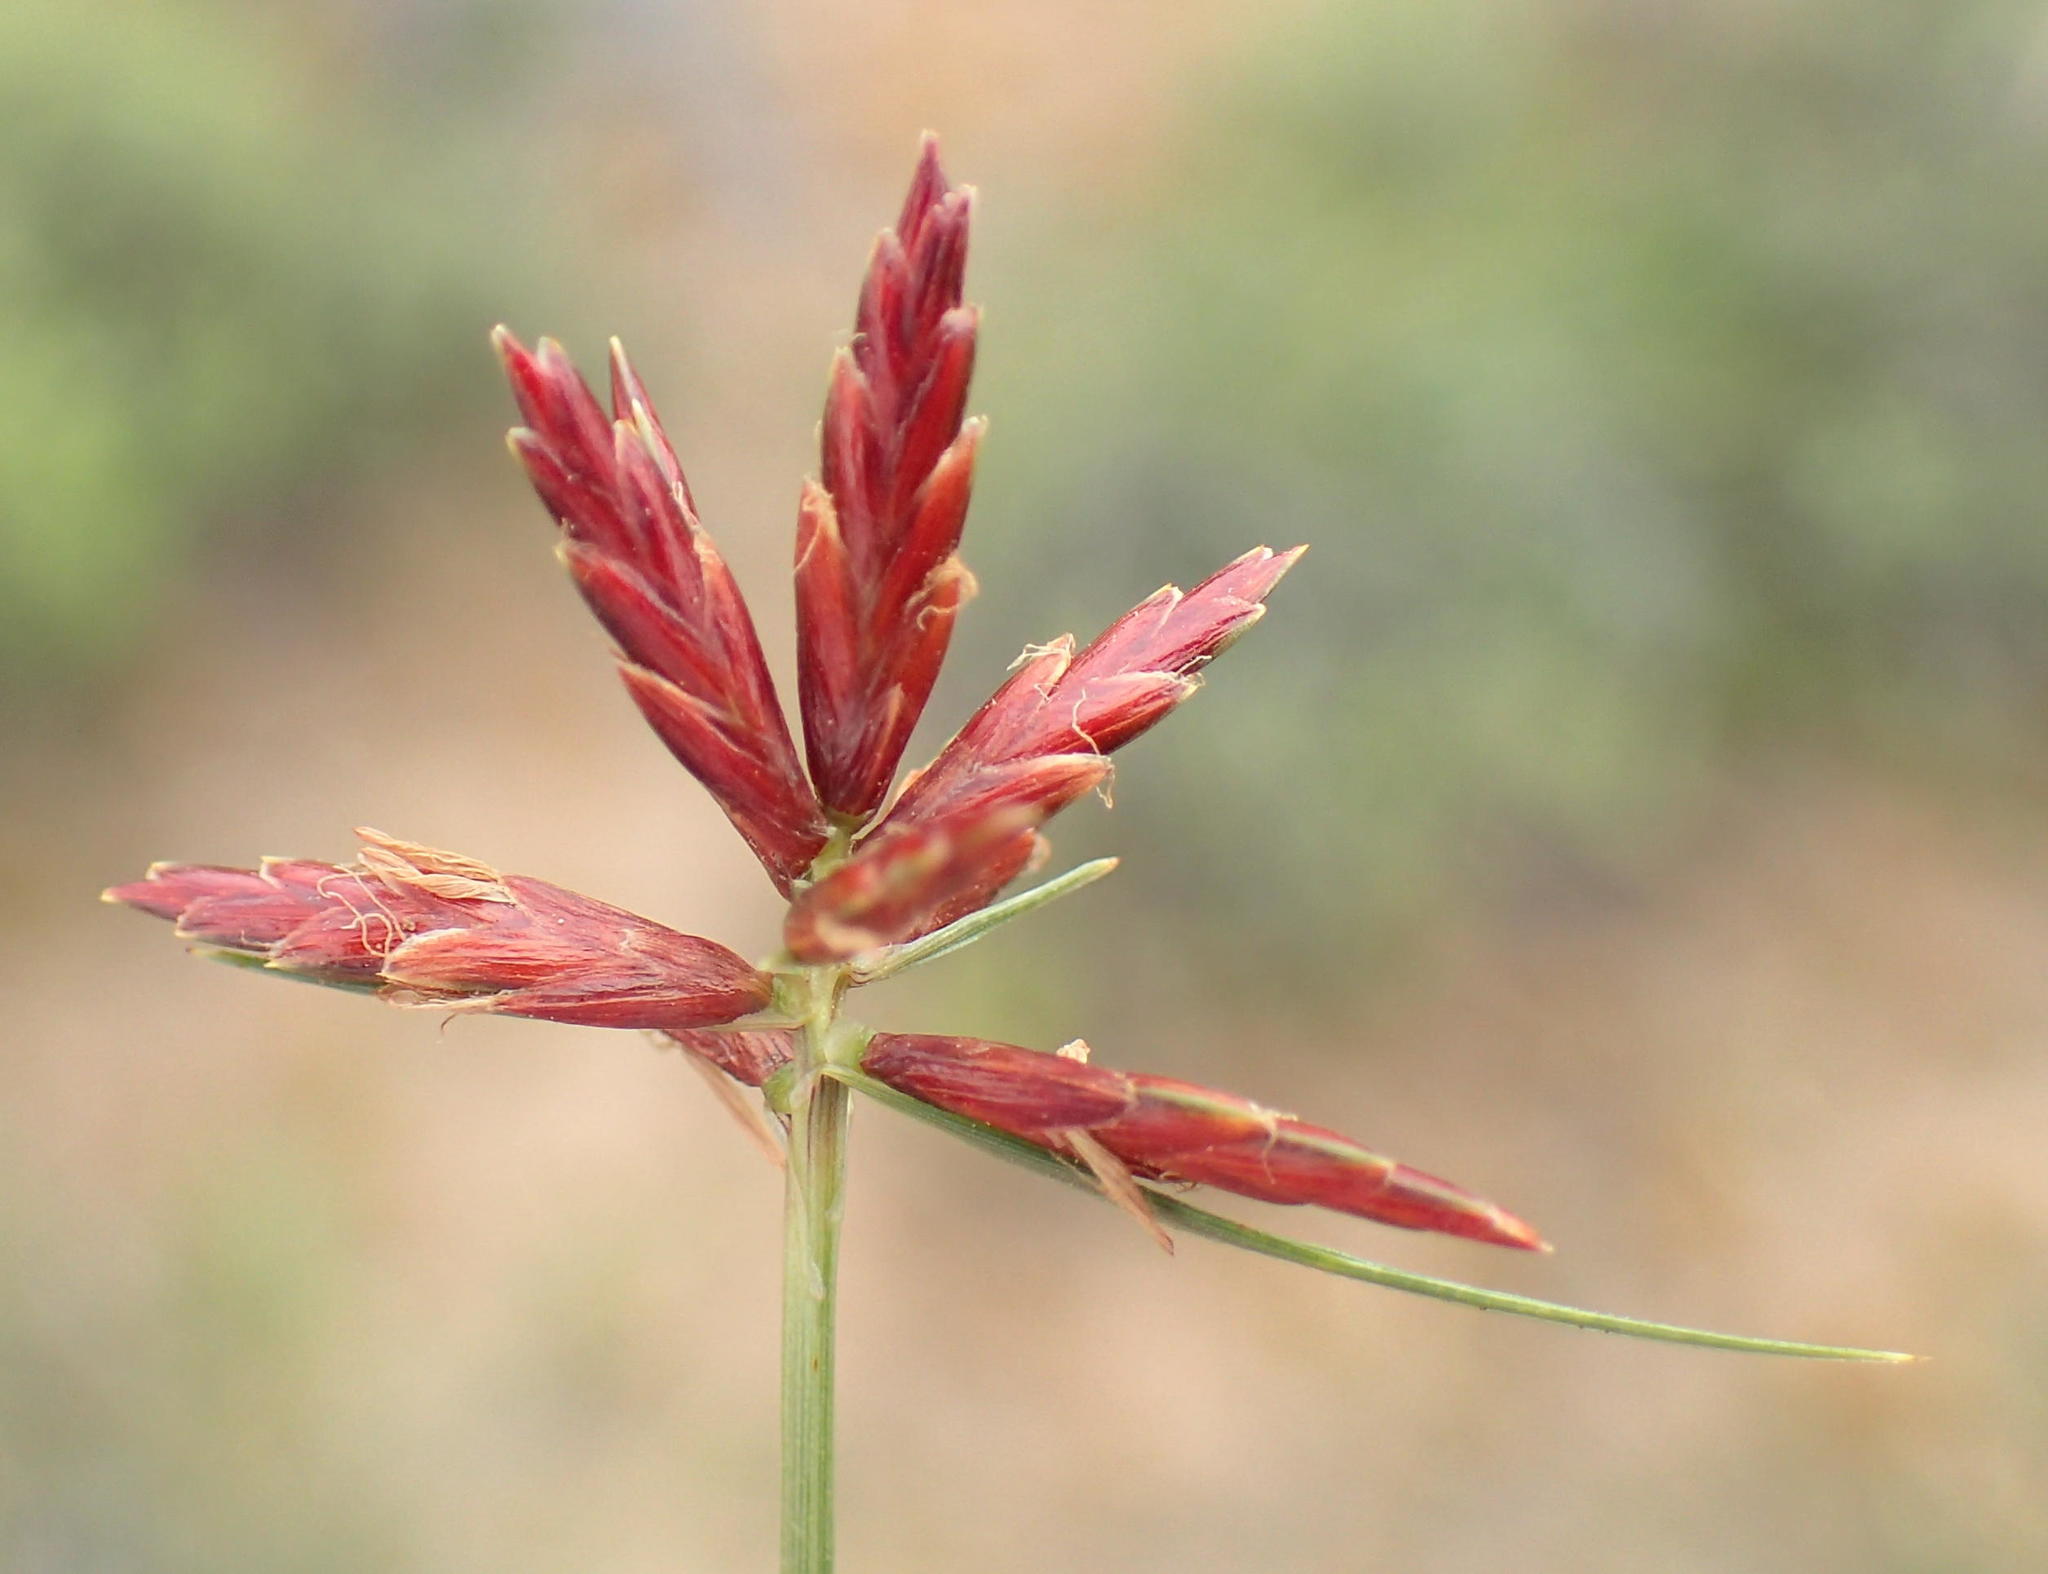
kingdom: Plantae
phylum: Tracheophyta
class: Liliopsida
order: Poales
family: Cyperaceae
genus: Cyperus
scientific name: Cyperus rupestris
